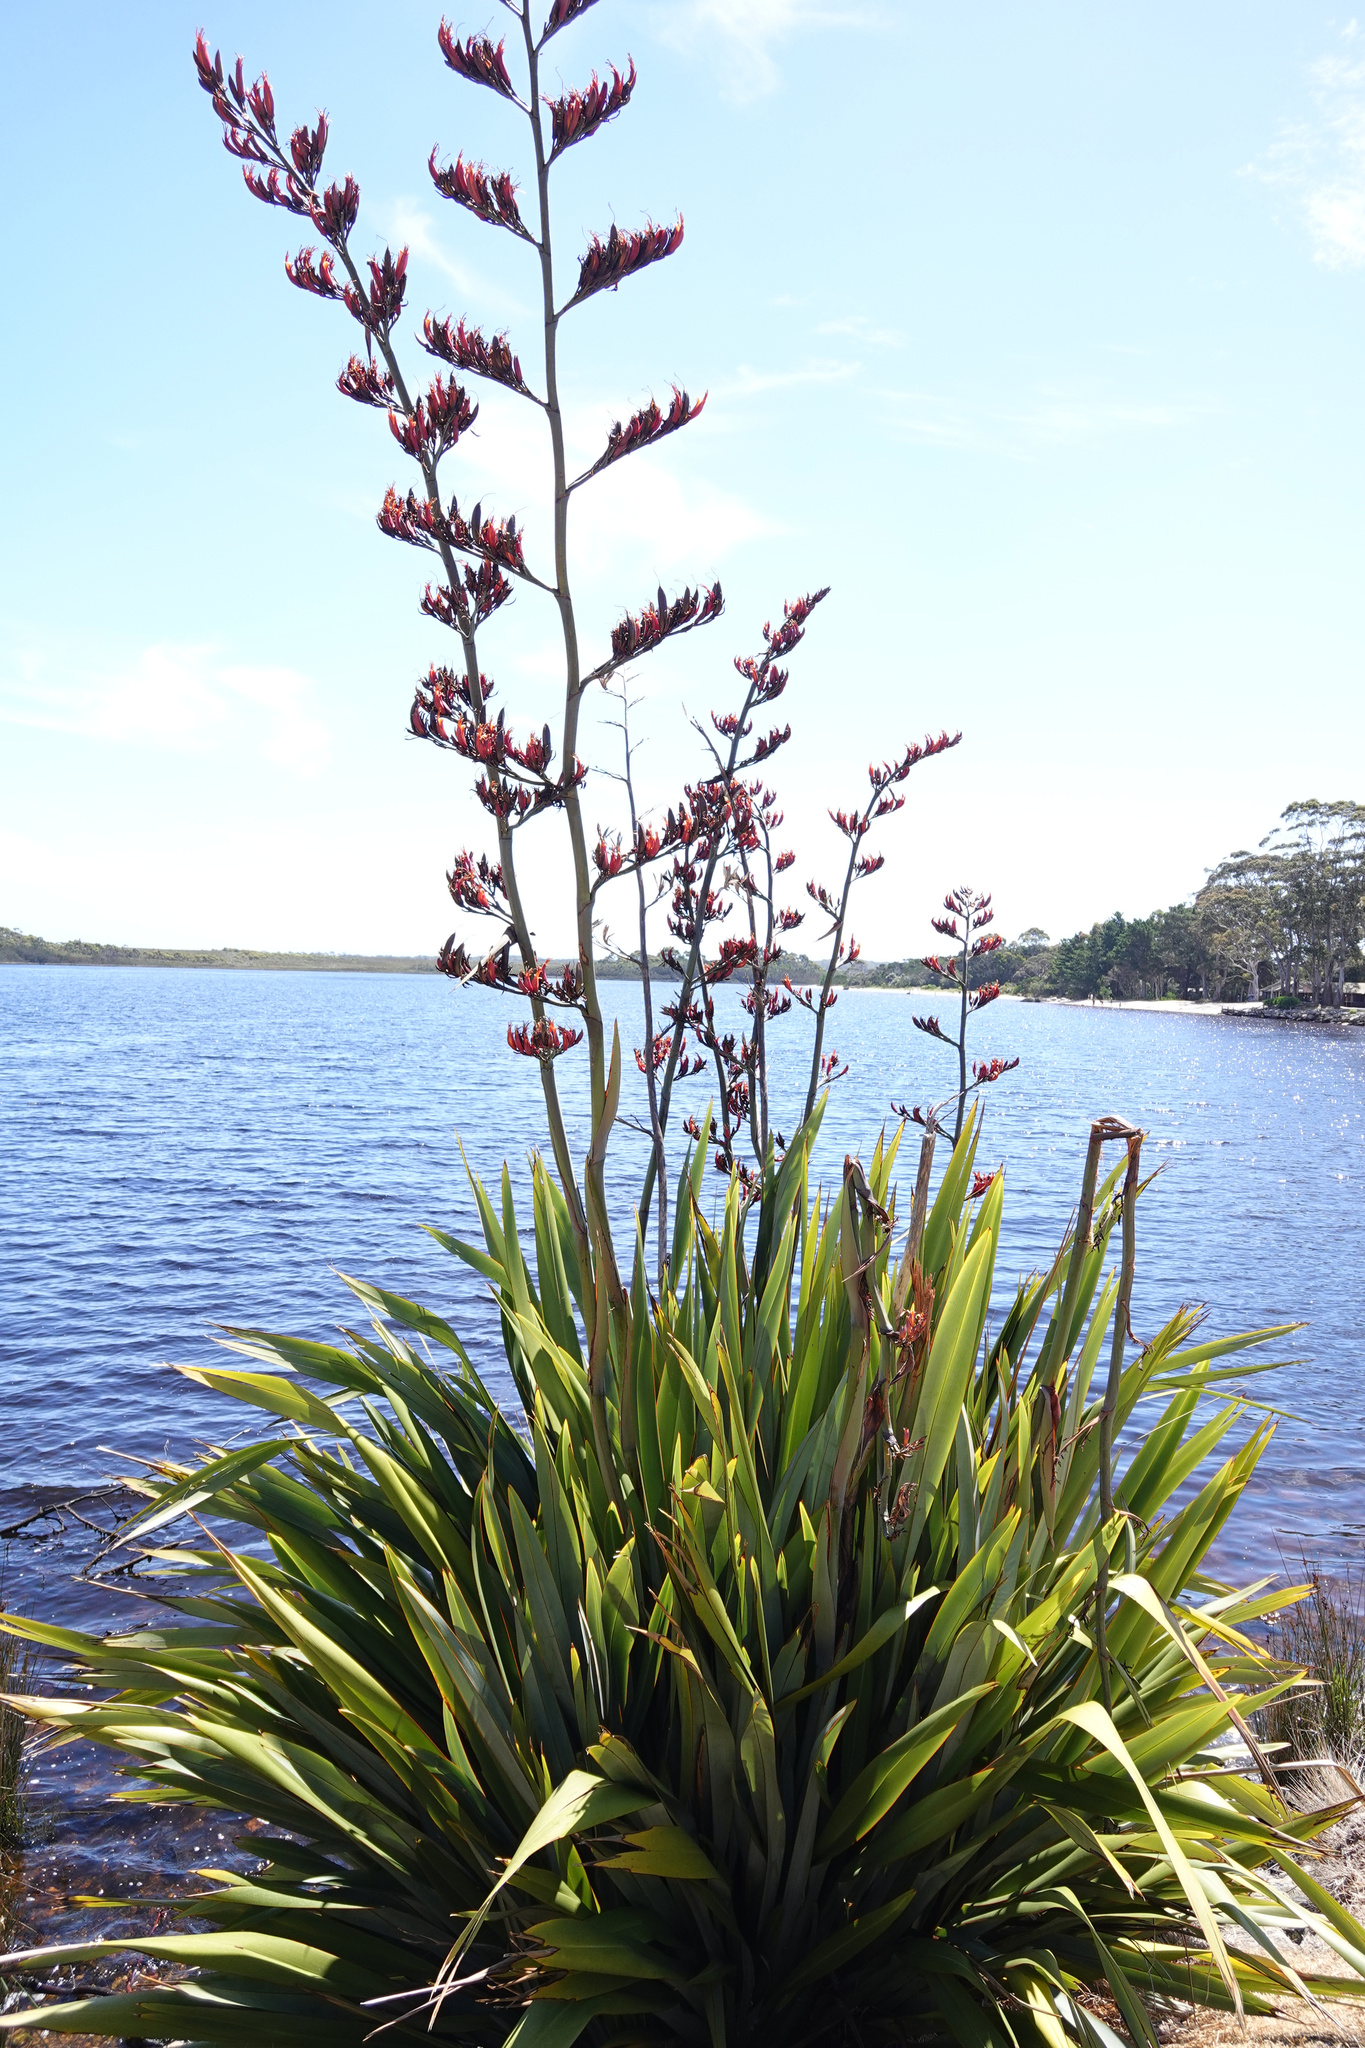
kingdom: Plantae
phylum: Tracheophyta
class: Liliopsida
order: Asparagales
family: Asphodelaceae
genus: Phormium
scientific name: Phormium tenax
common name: New zealand flax
